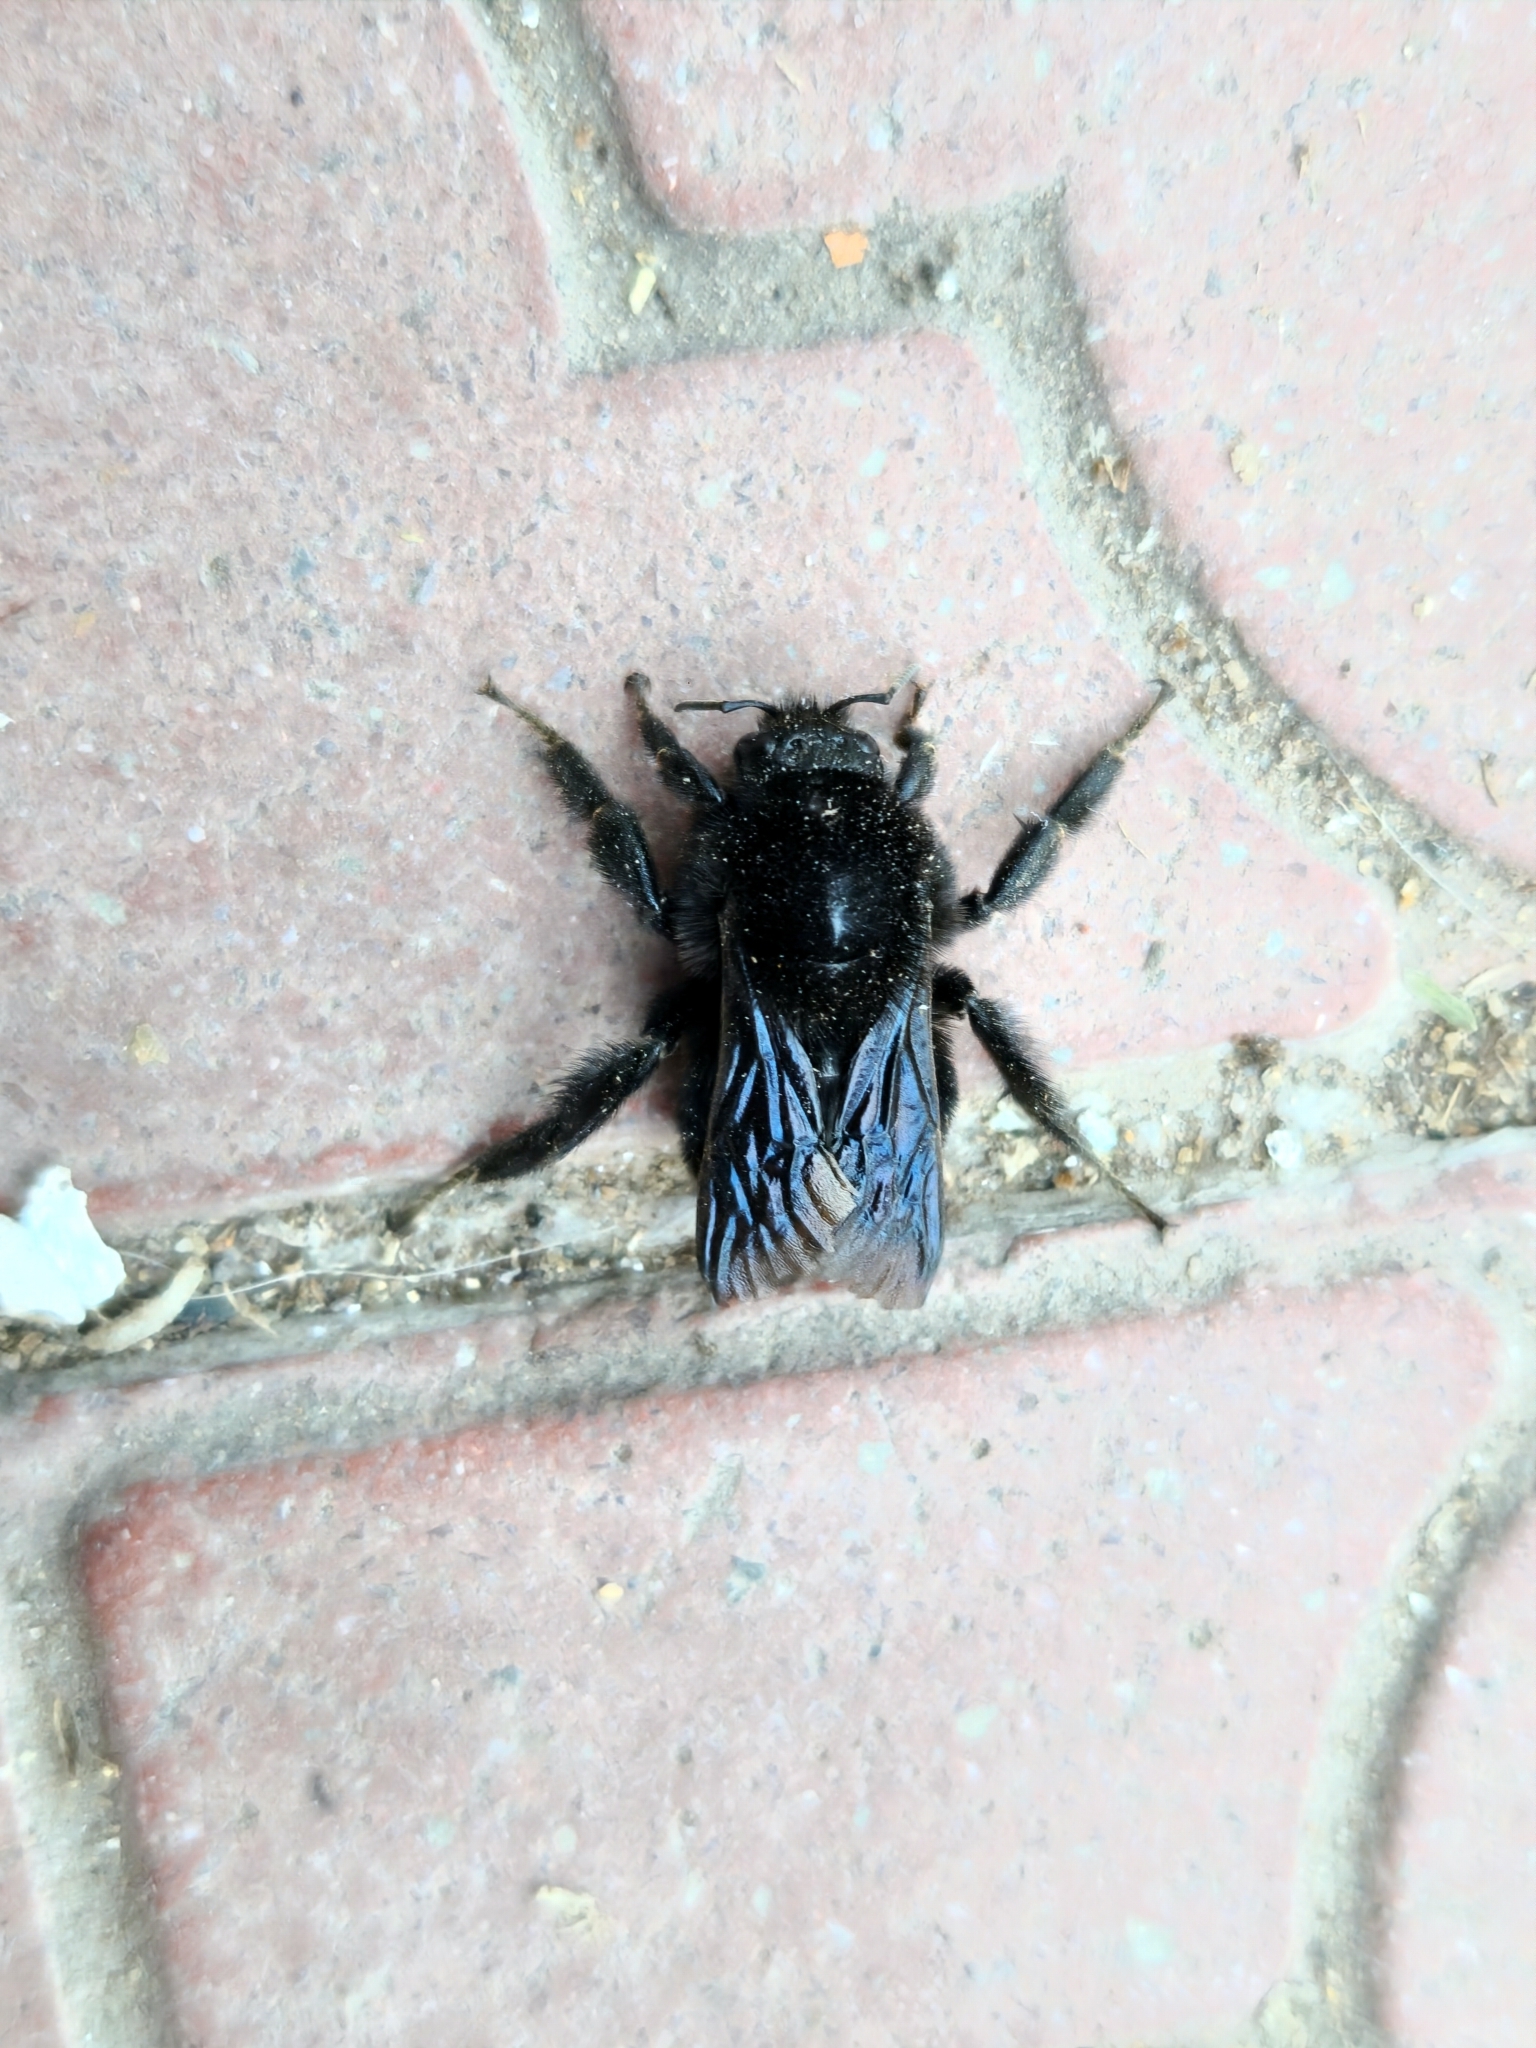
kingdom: Animalia
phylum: Arthropoda
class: Insecta
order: Hymenoptera
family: Apidae
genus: Bombus
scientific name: Bombus pauloensis
